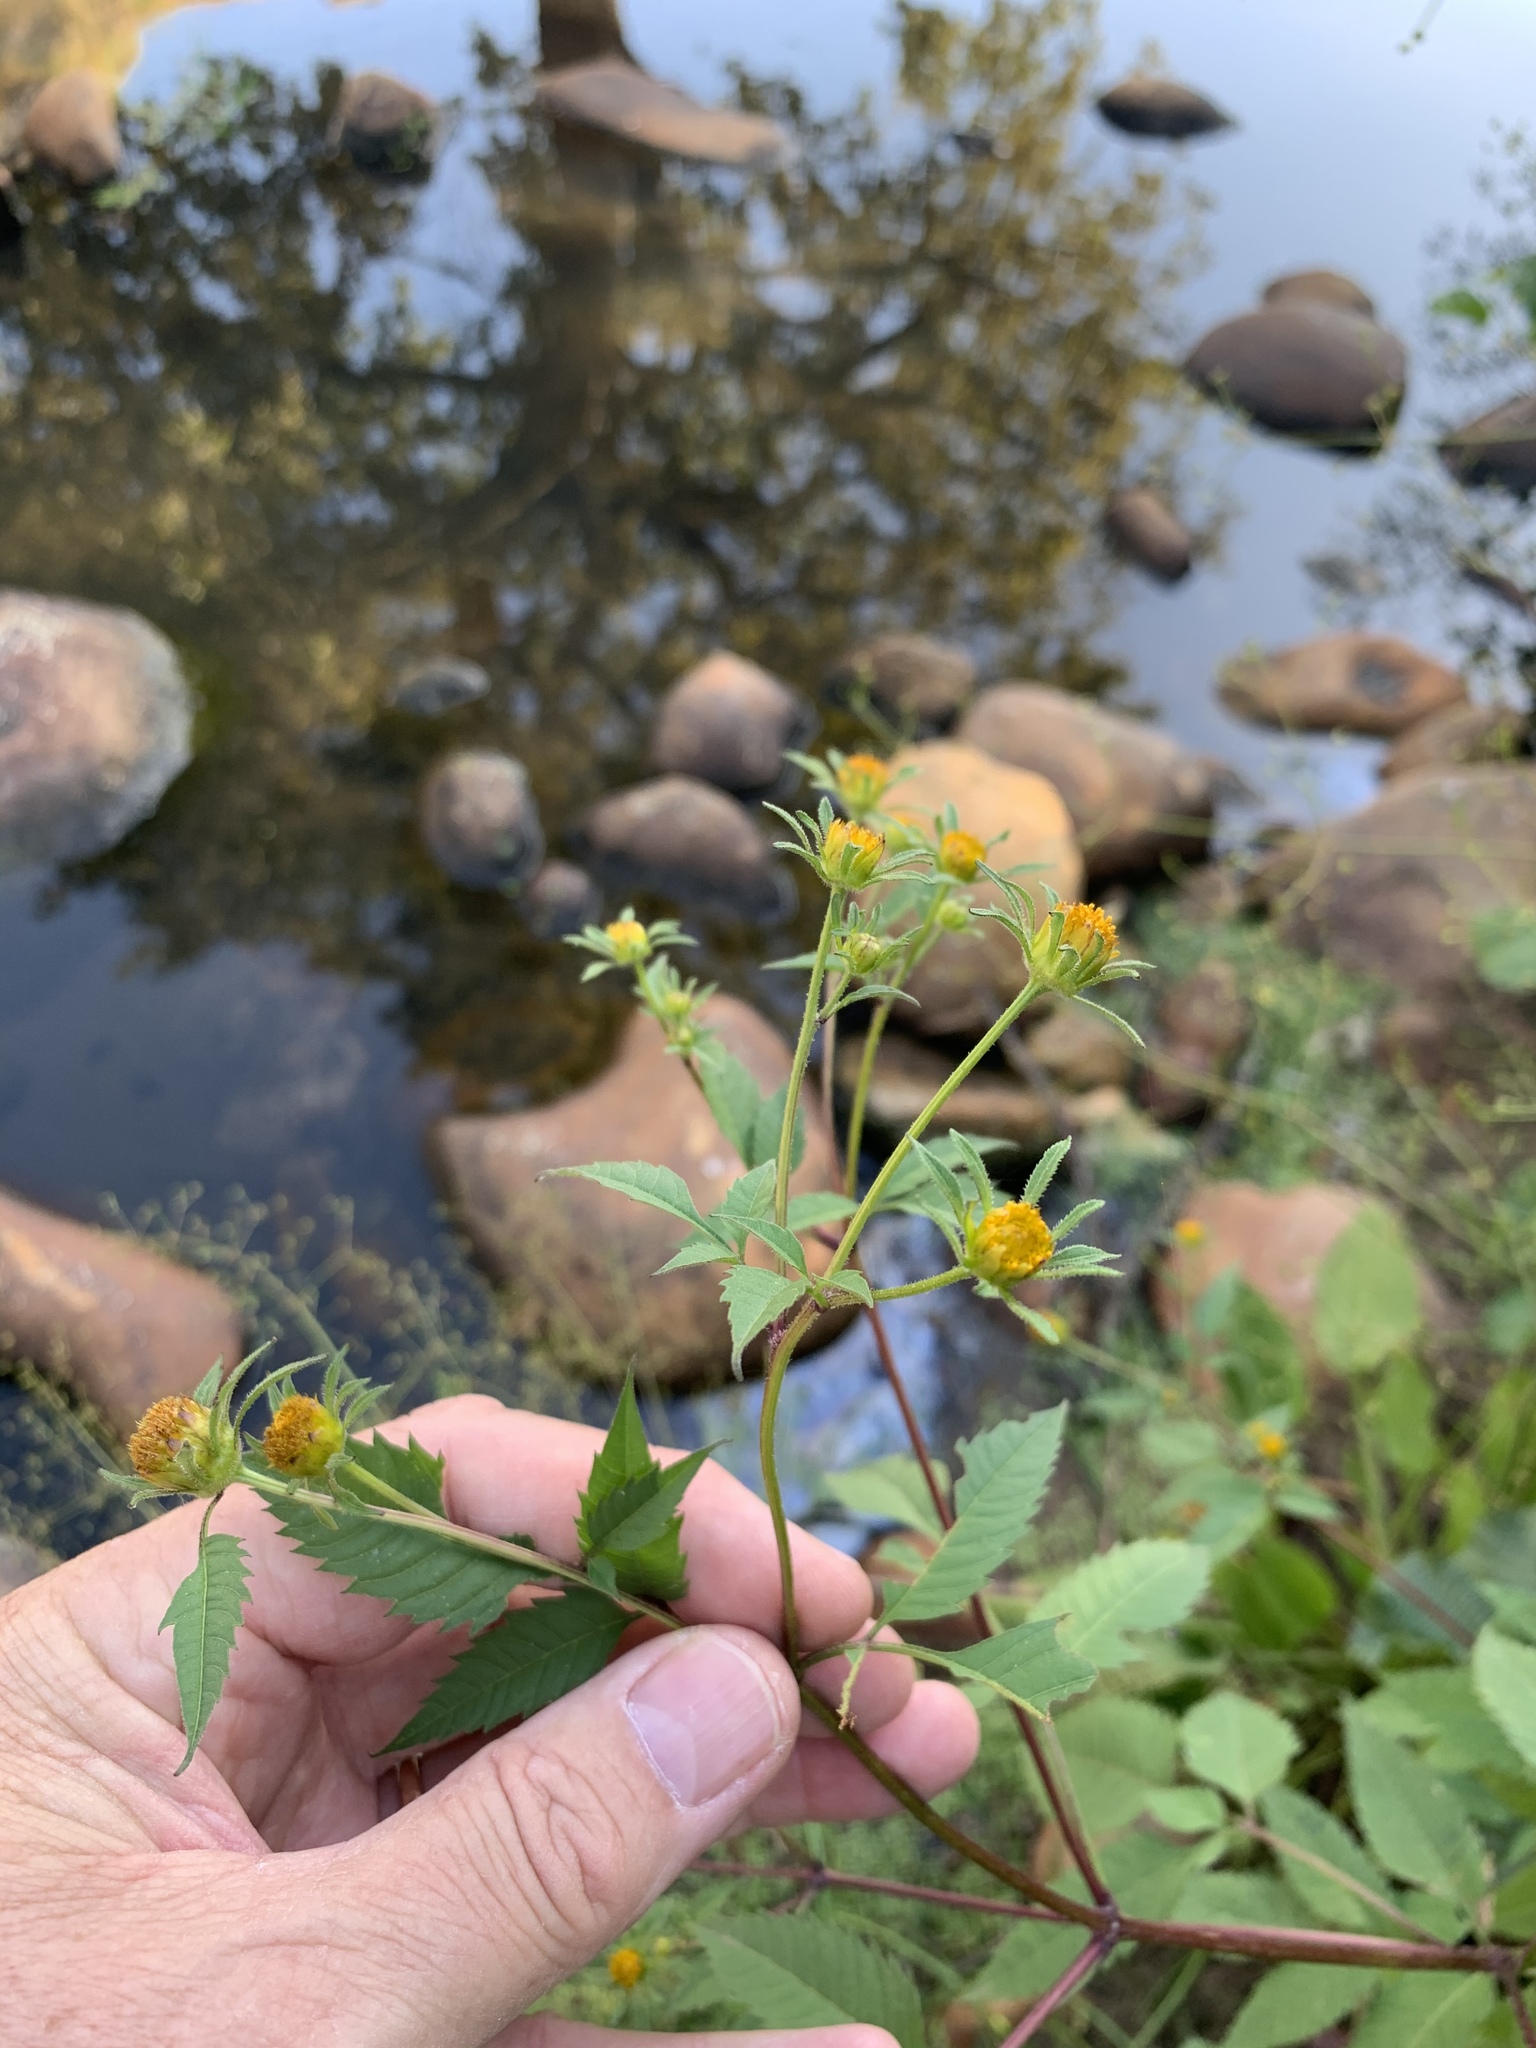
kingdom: Plantae
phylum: Tracheophyta
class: Magnoliopsida
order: Asterales
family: Asteraceae
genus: Bidens
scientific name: Bidens pilosa
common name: Black-jack
